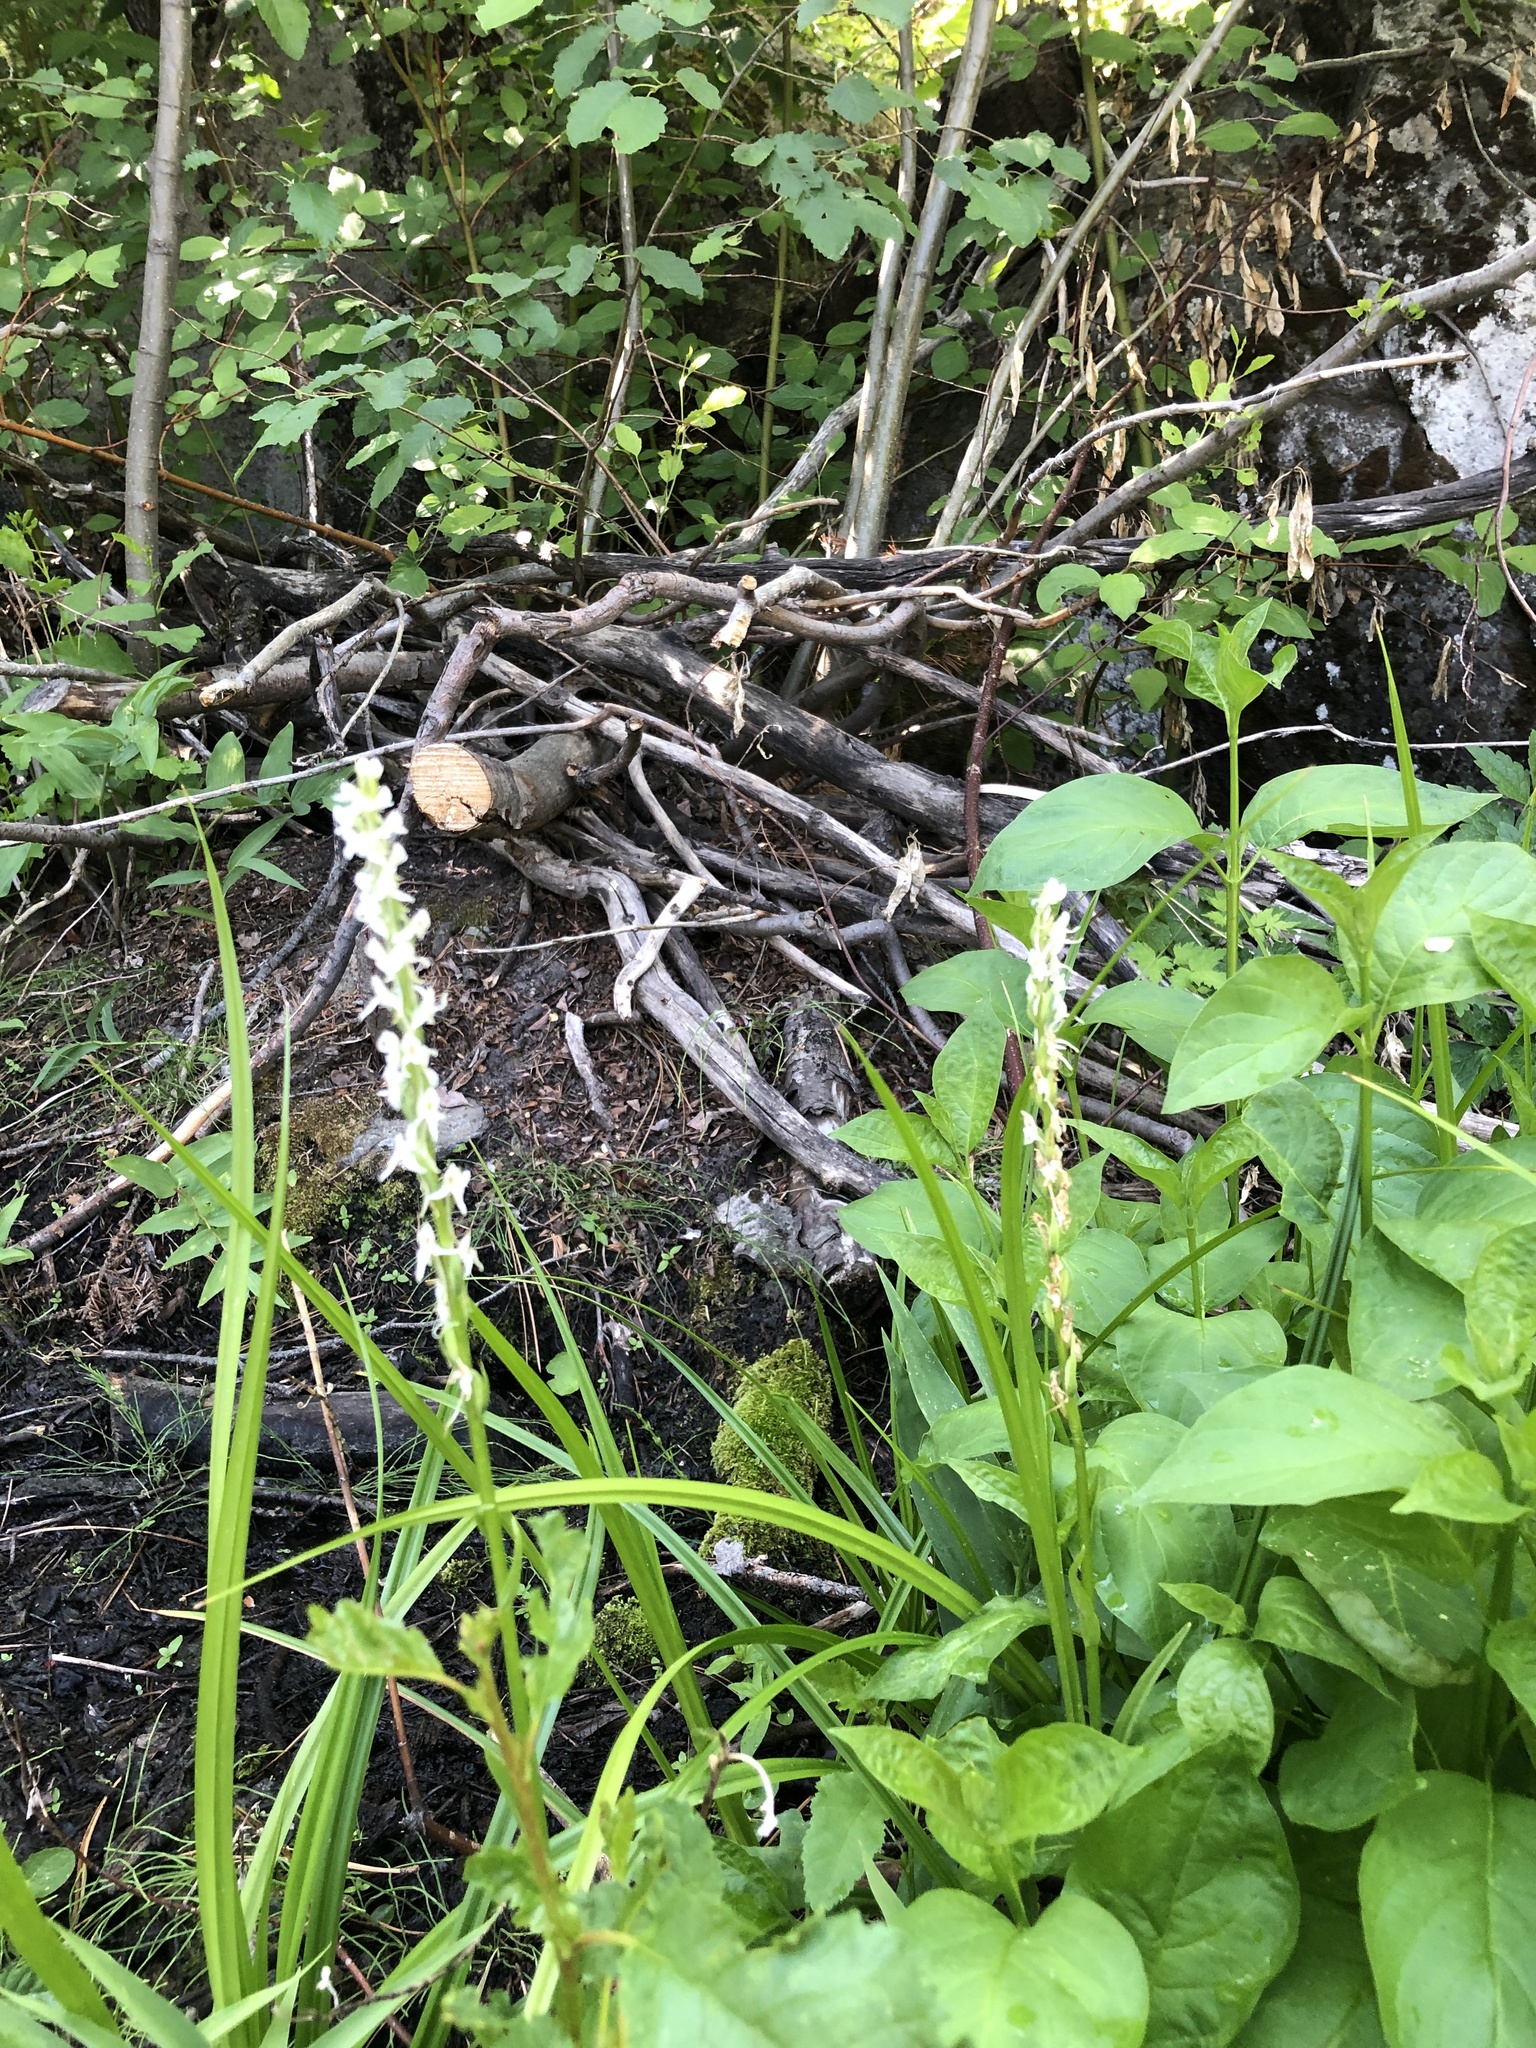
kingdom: Plantae
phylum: Tracheophyta
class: Liliopsida
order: Asparagales
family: Orchidaceae
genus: Platanthera
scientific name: Platanthera dilatata
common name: Bog candles
